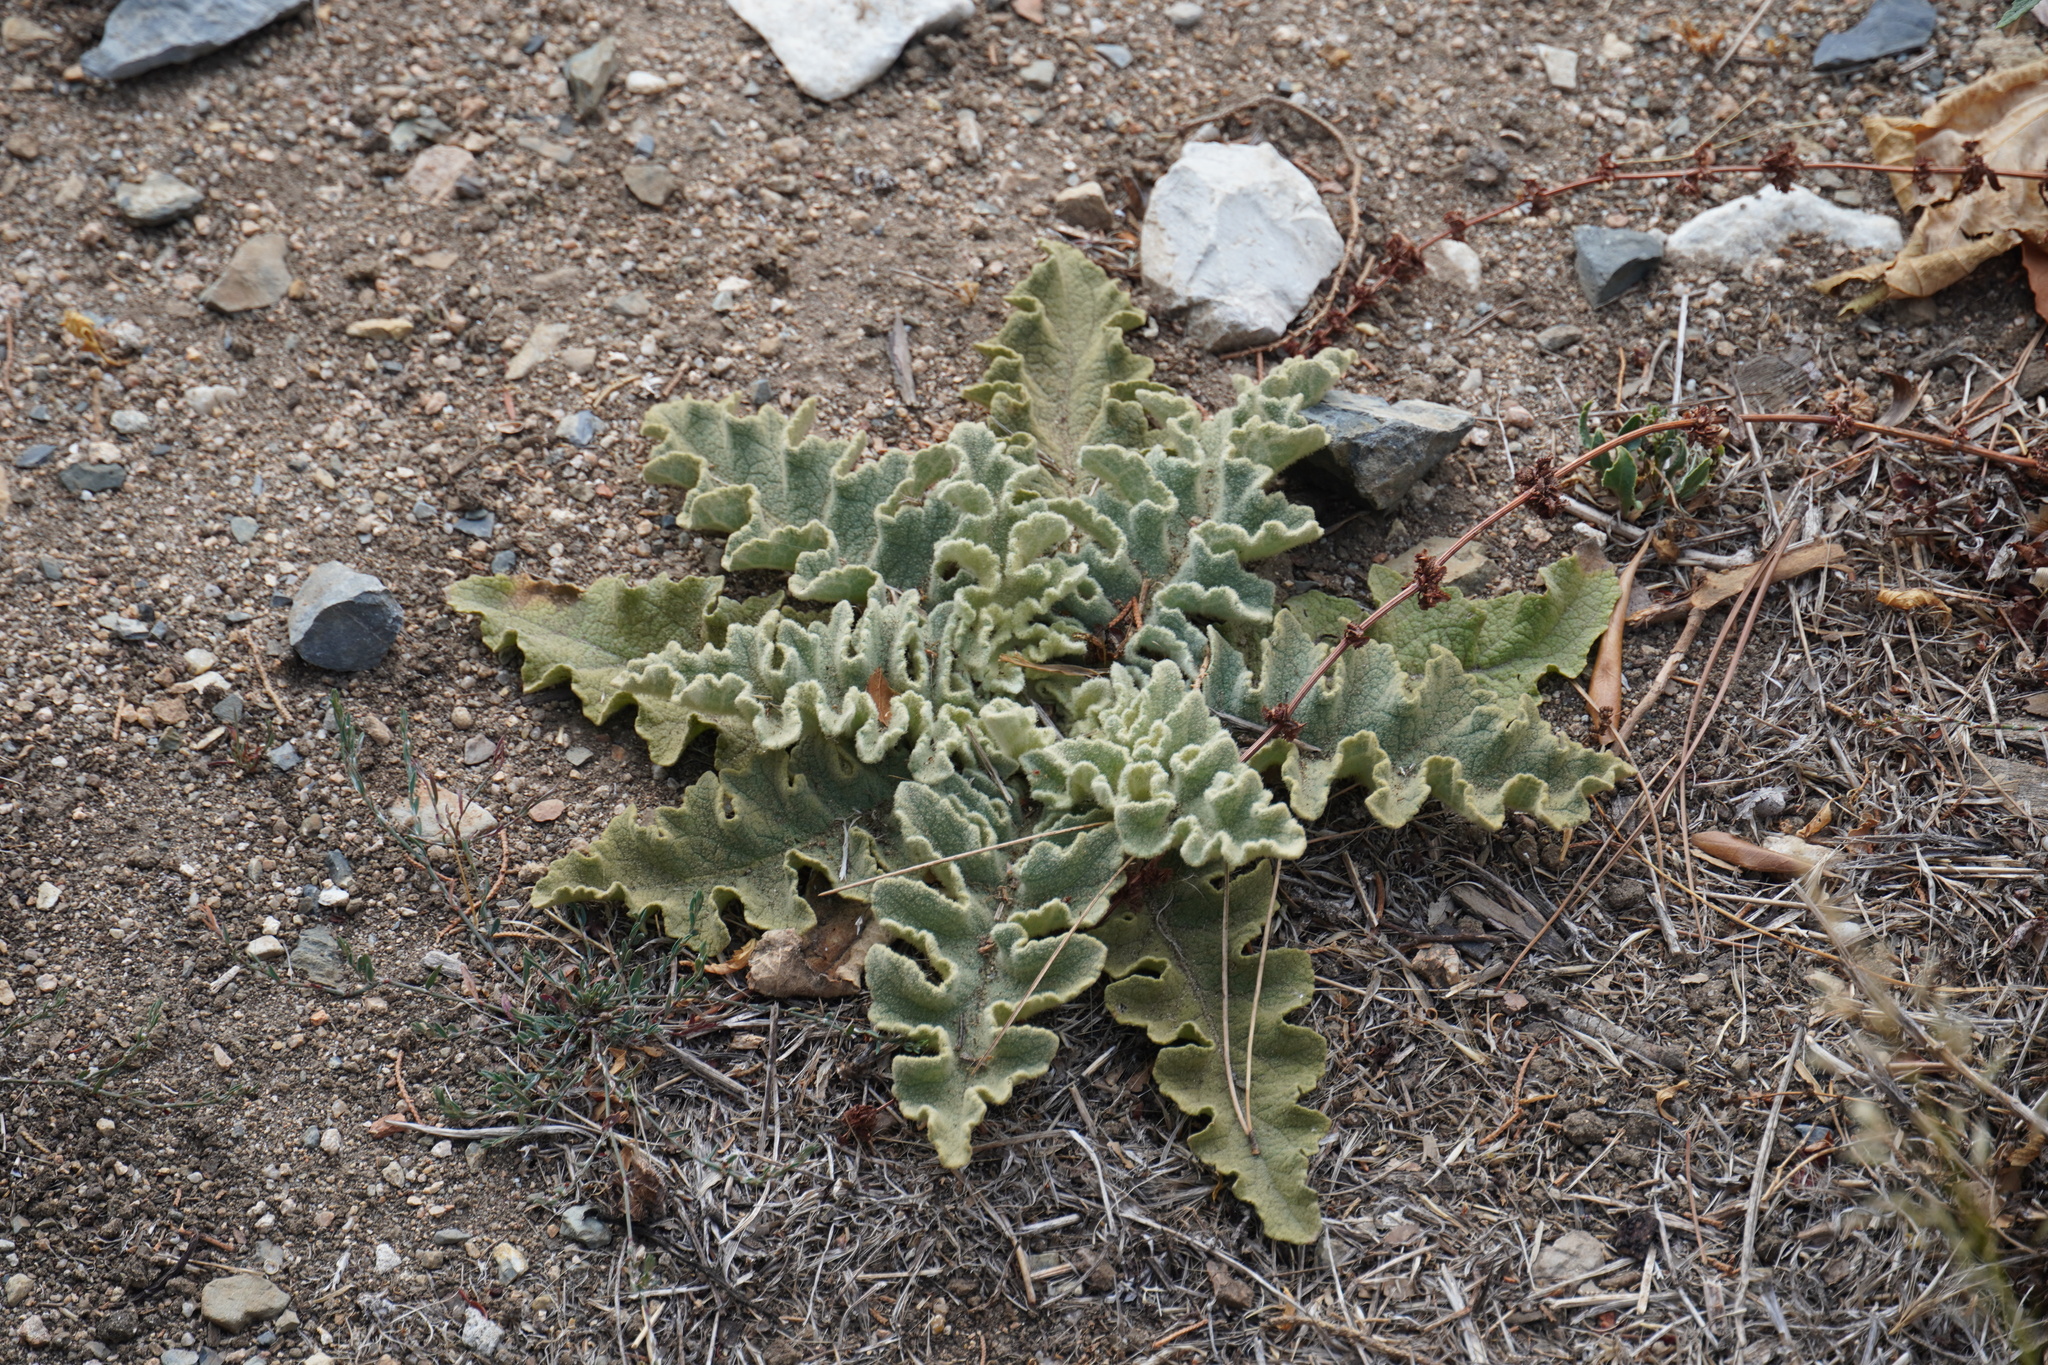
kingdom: Plantae
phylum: Tracheophyta
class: Magnoliopsida
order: Lamiales
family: Scrophulariaceae
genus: Verbascum
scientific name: Verbascum sinuatum
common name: Wavyleaf mullein
